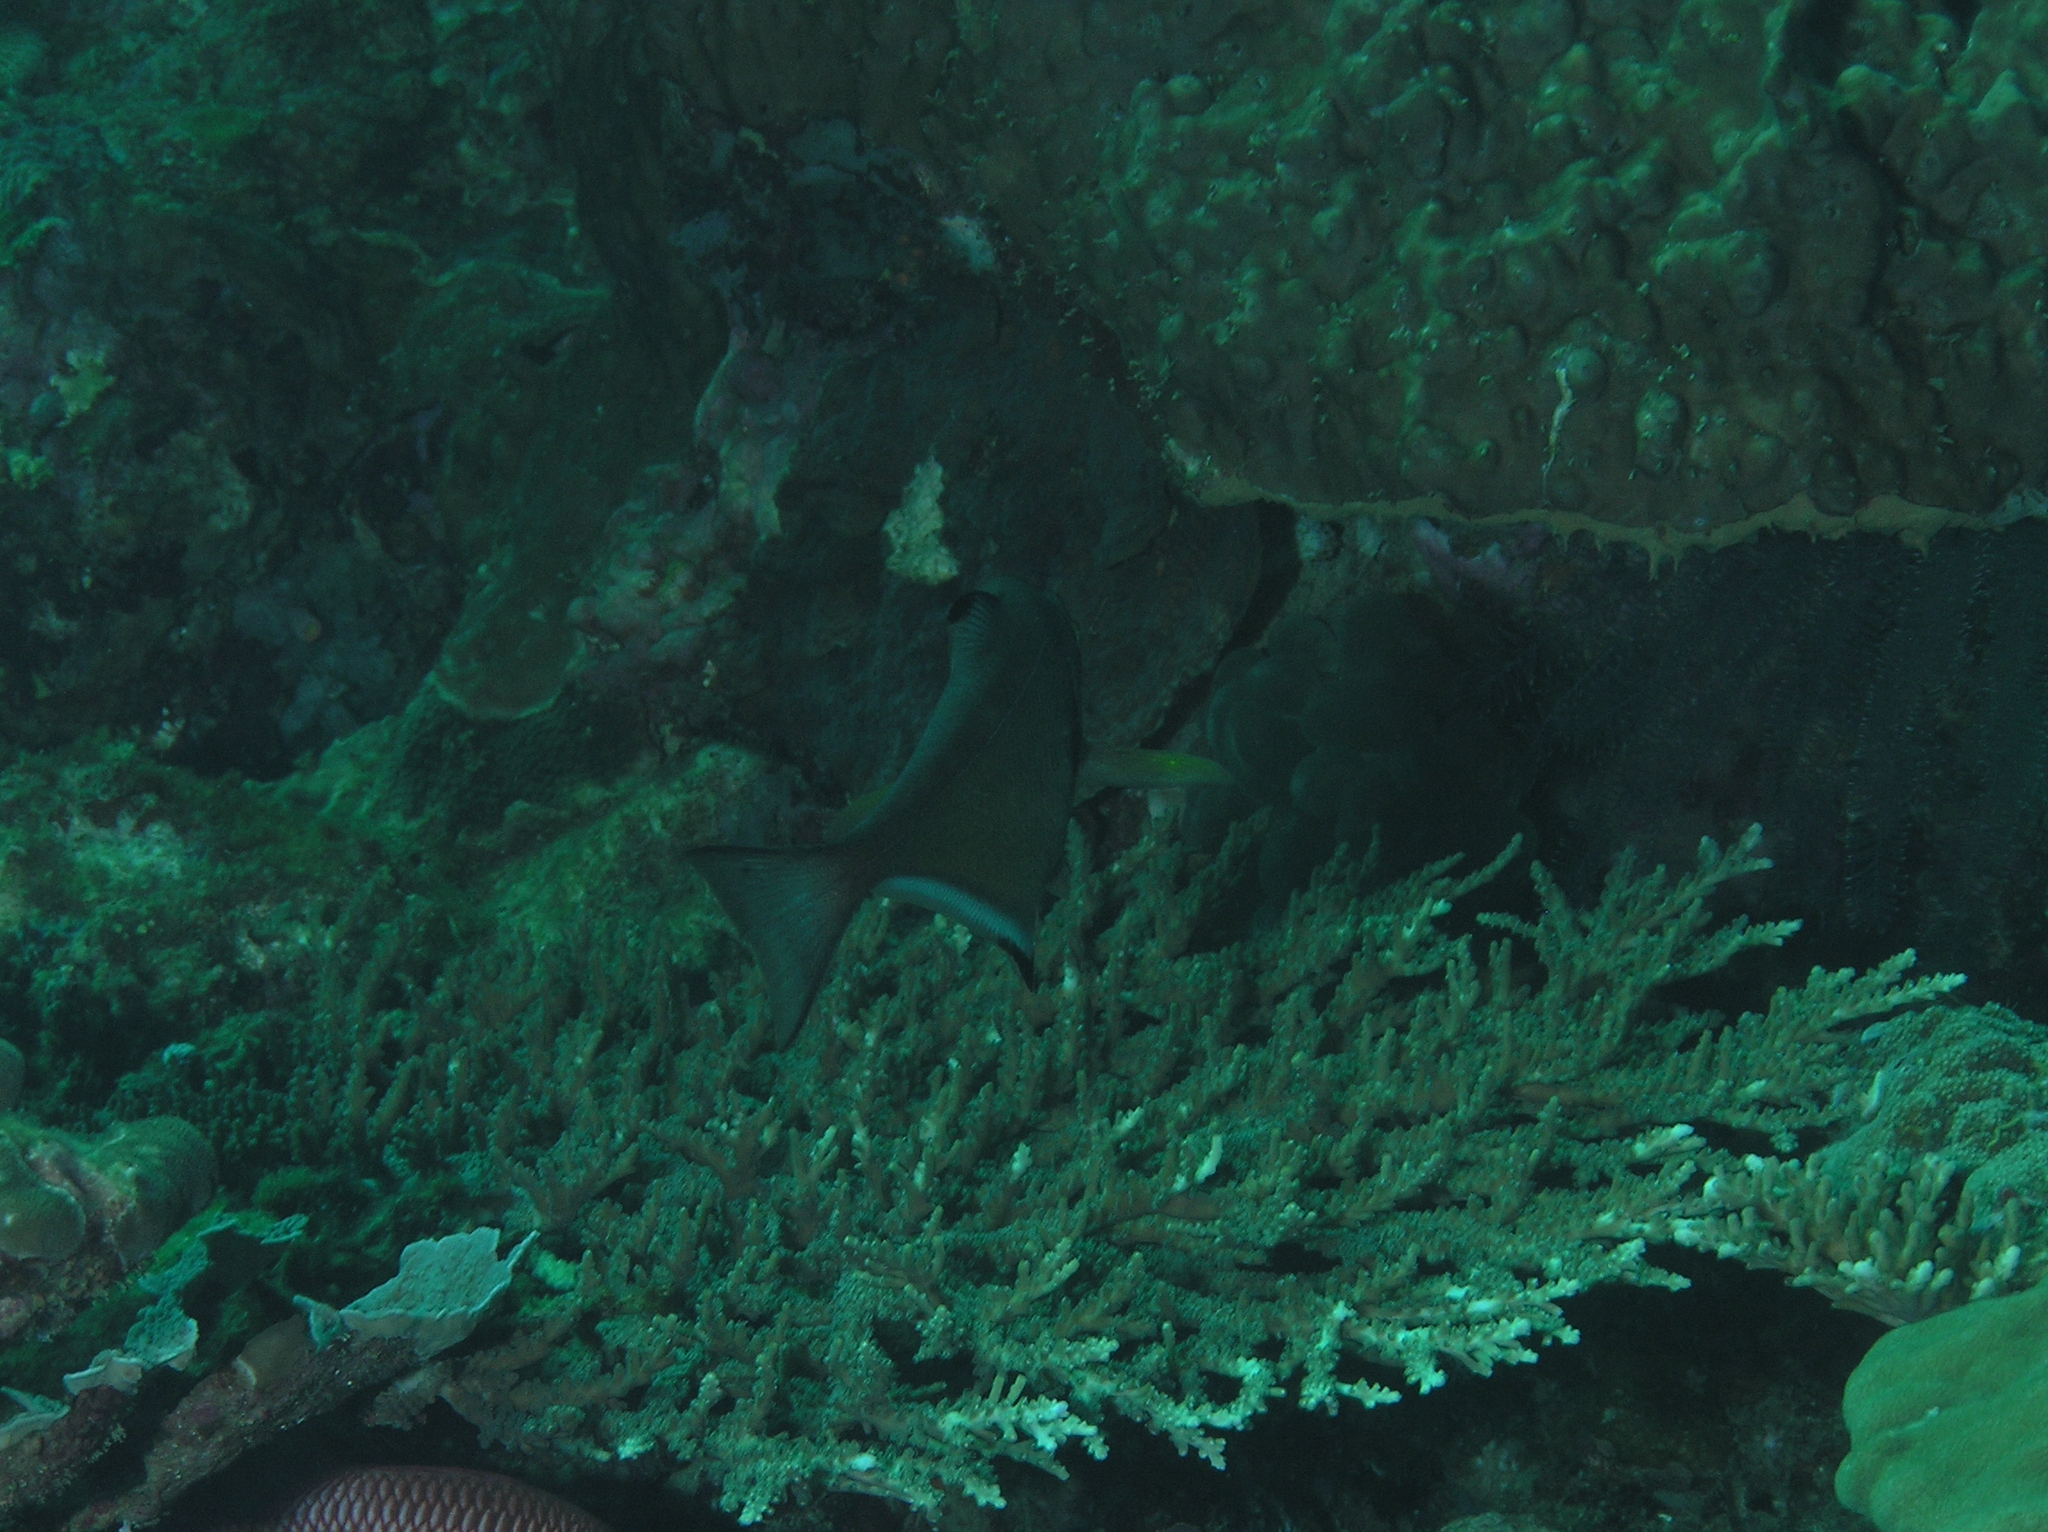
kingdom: Animalia
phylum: Chordata
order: Perciformes
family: Pempheridae
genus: Pempheris
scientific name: Pempheris vanicolensis
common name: Vanikoro sweeper
